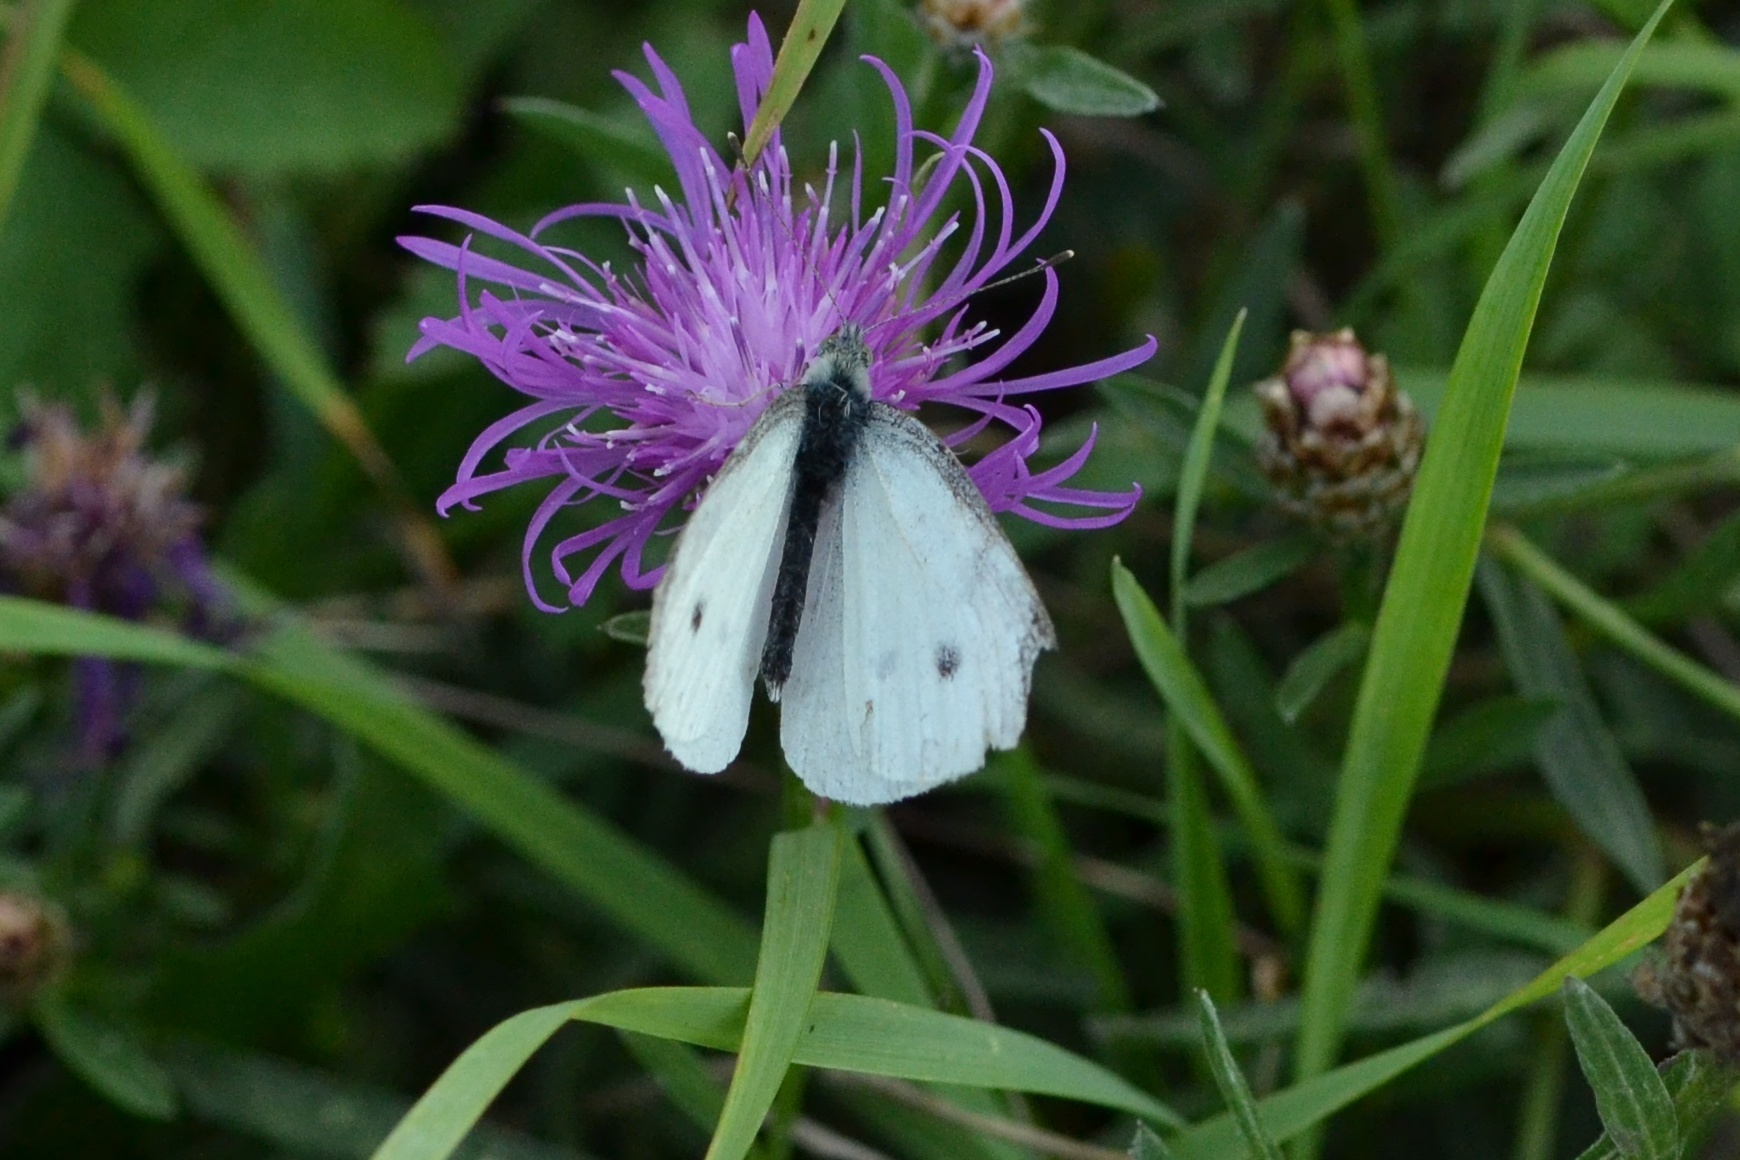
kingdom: Animalia
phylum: Arthropoda
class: Insecta
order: Lepidoptera
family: Pieridae
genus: Pieris
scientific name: Pieris rapae
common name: Small white
